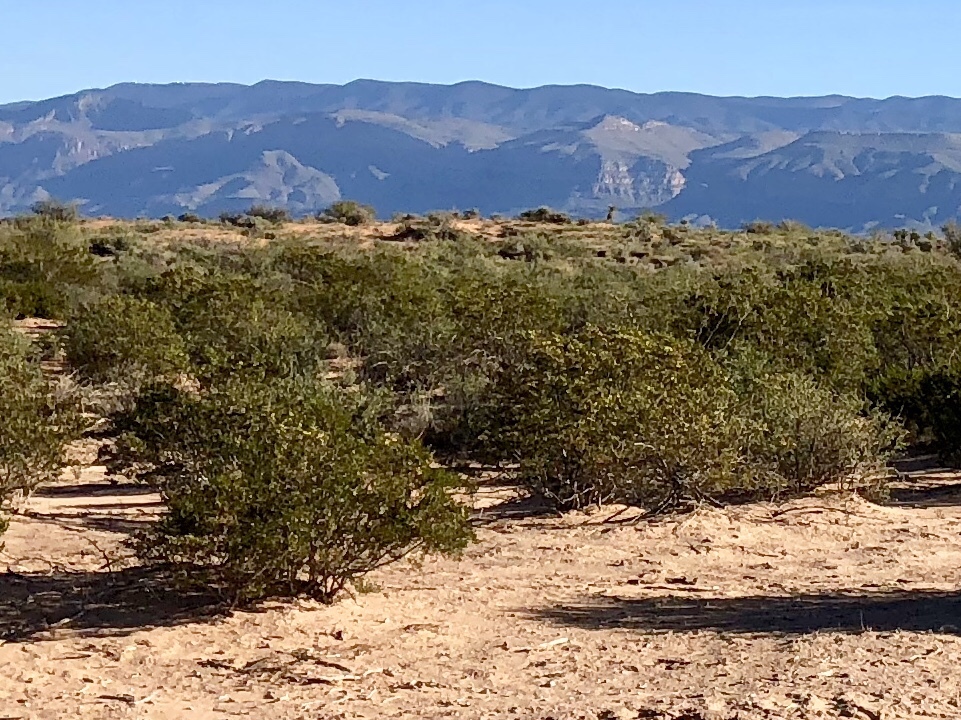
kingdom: Plantae
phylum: Tracheophyta
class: Magnoliopsida
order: Zygophyllales
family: Zygophyllaceae
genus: Larrea
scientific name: Larrea tridentata
